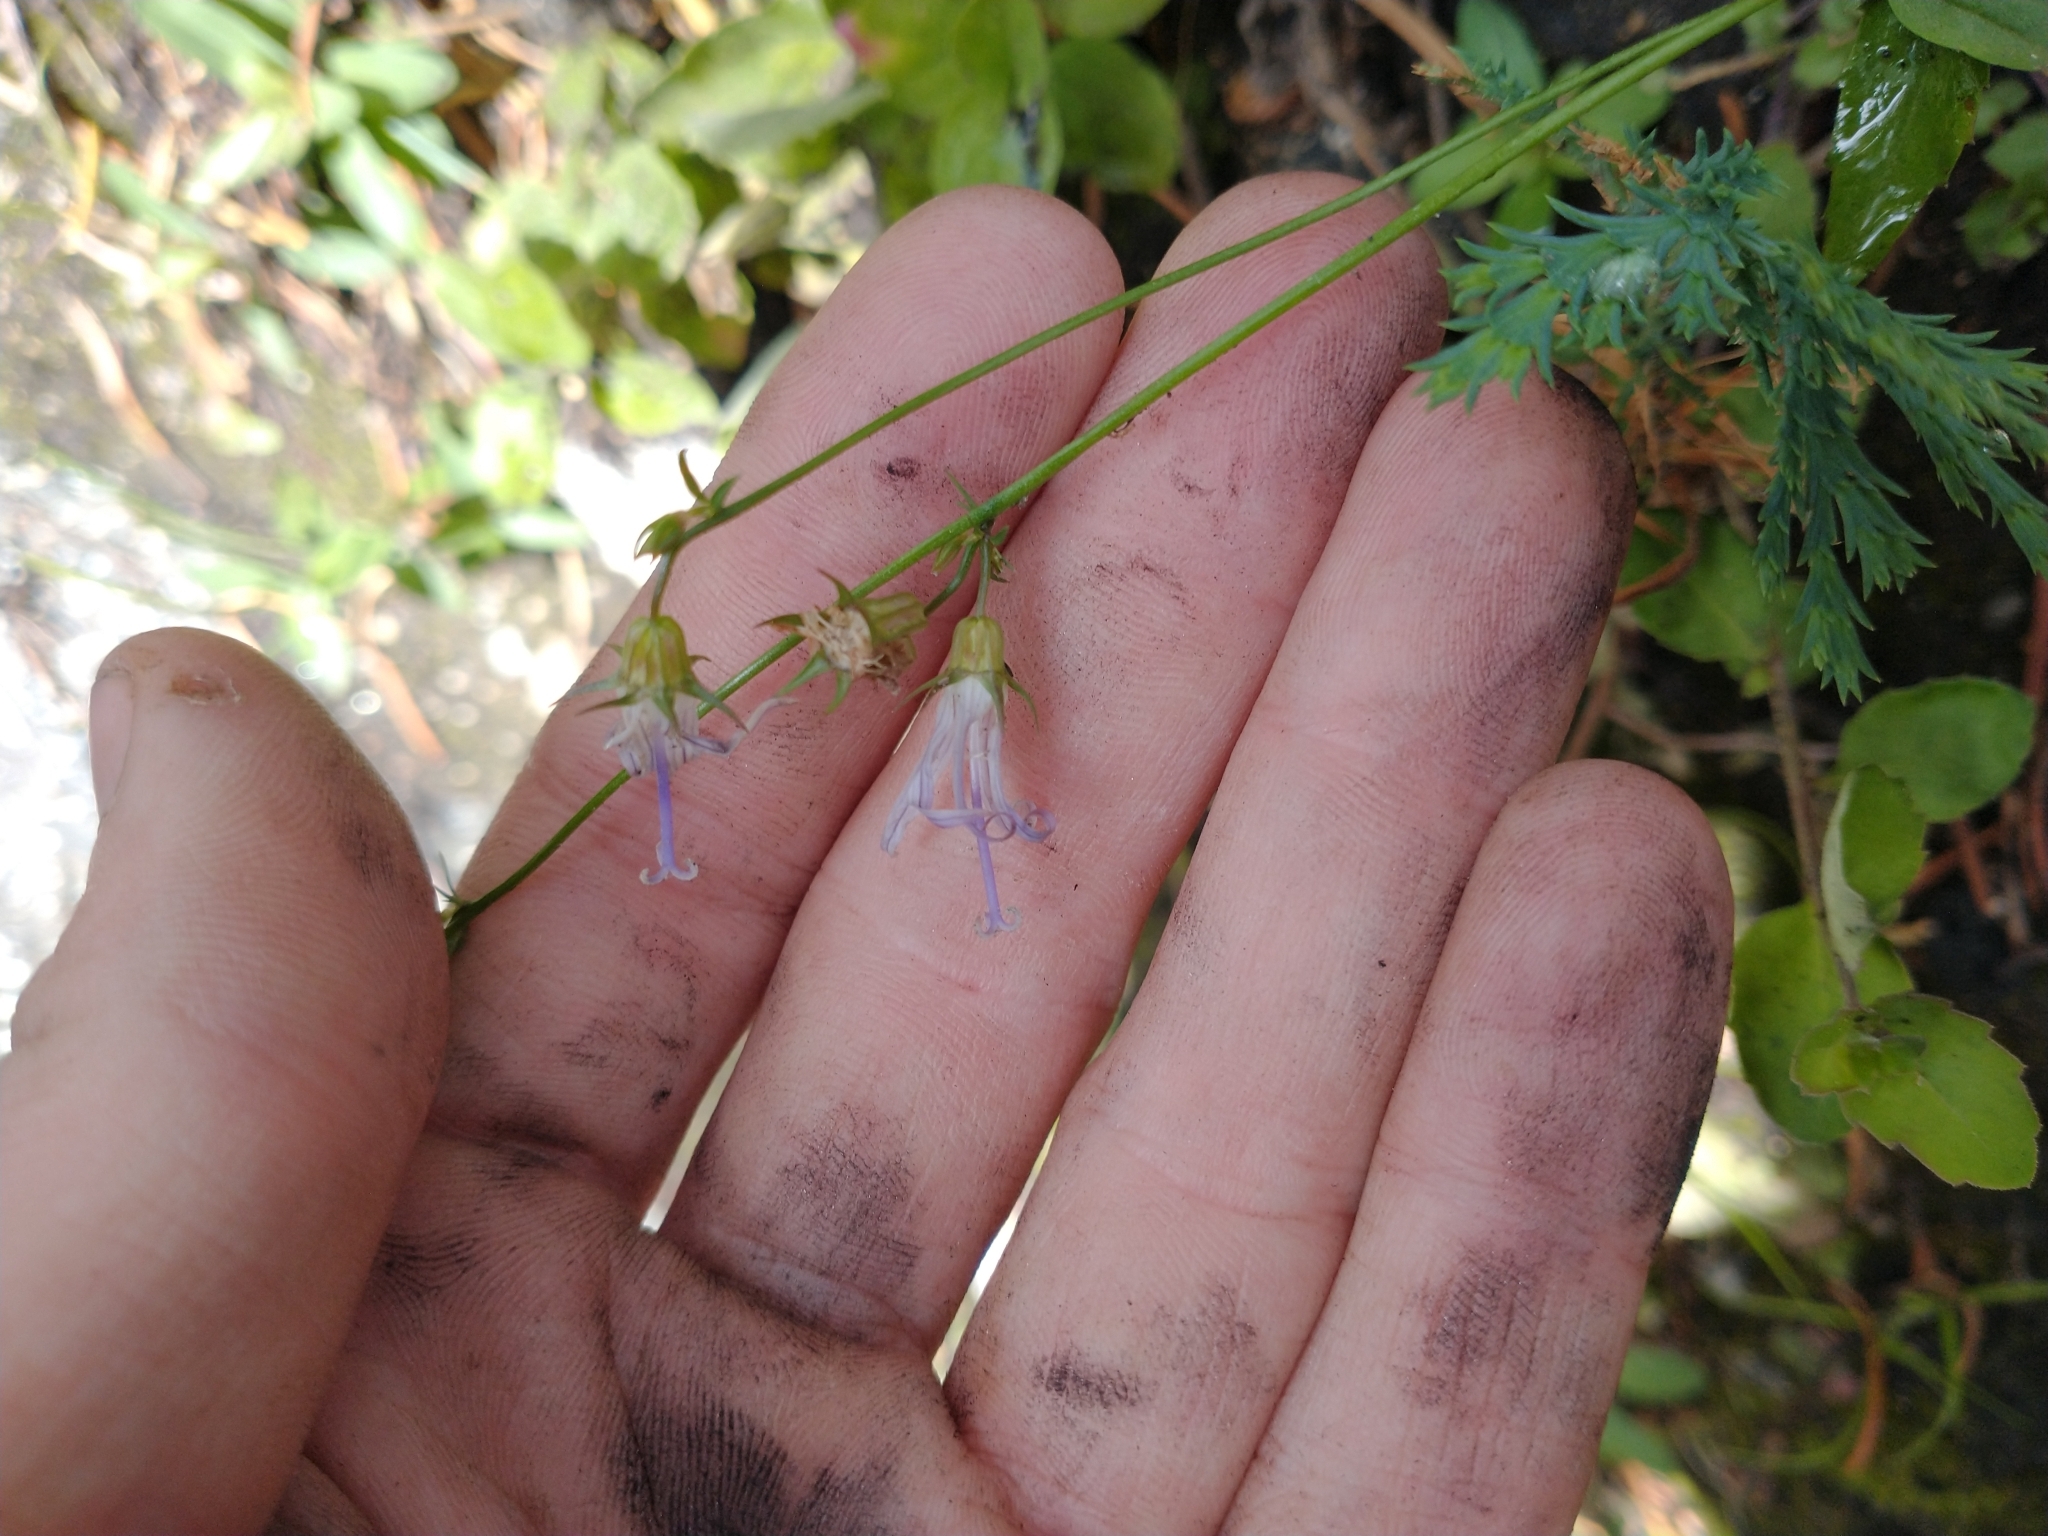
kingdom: Plantae
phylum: Tracheophyta
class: Magnoliopsida
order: Asterales
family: Campanulaceae
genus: Smithiastrum
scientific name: Smithiastrum prenanthoides
